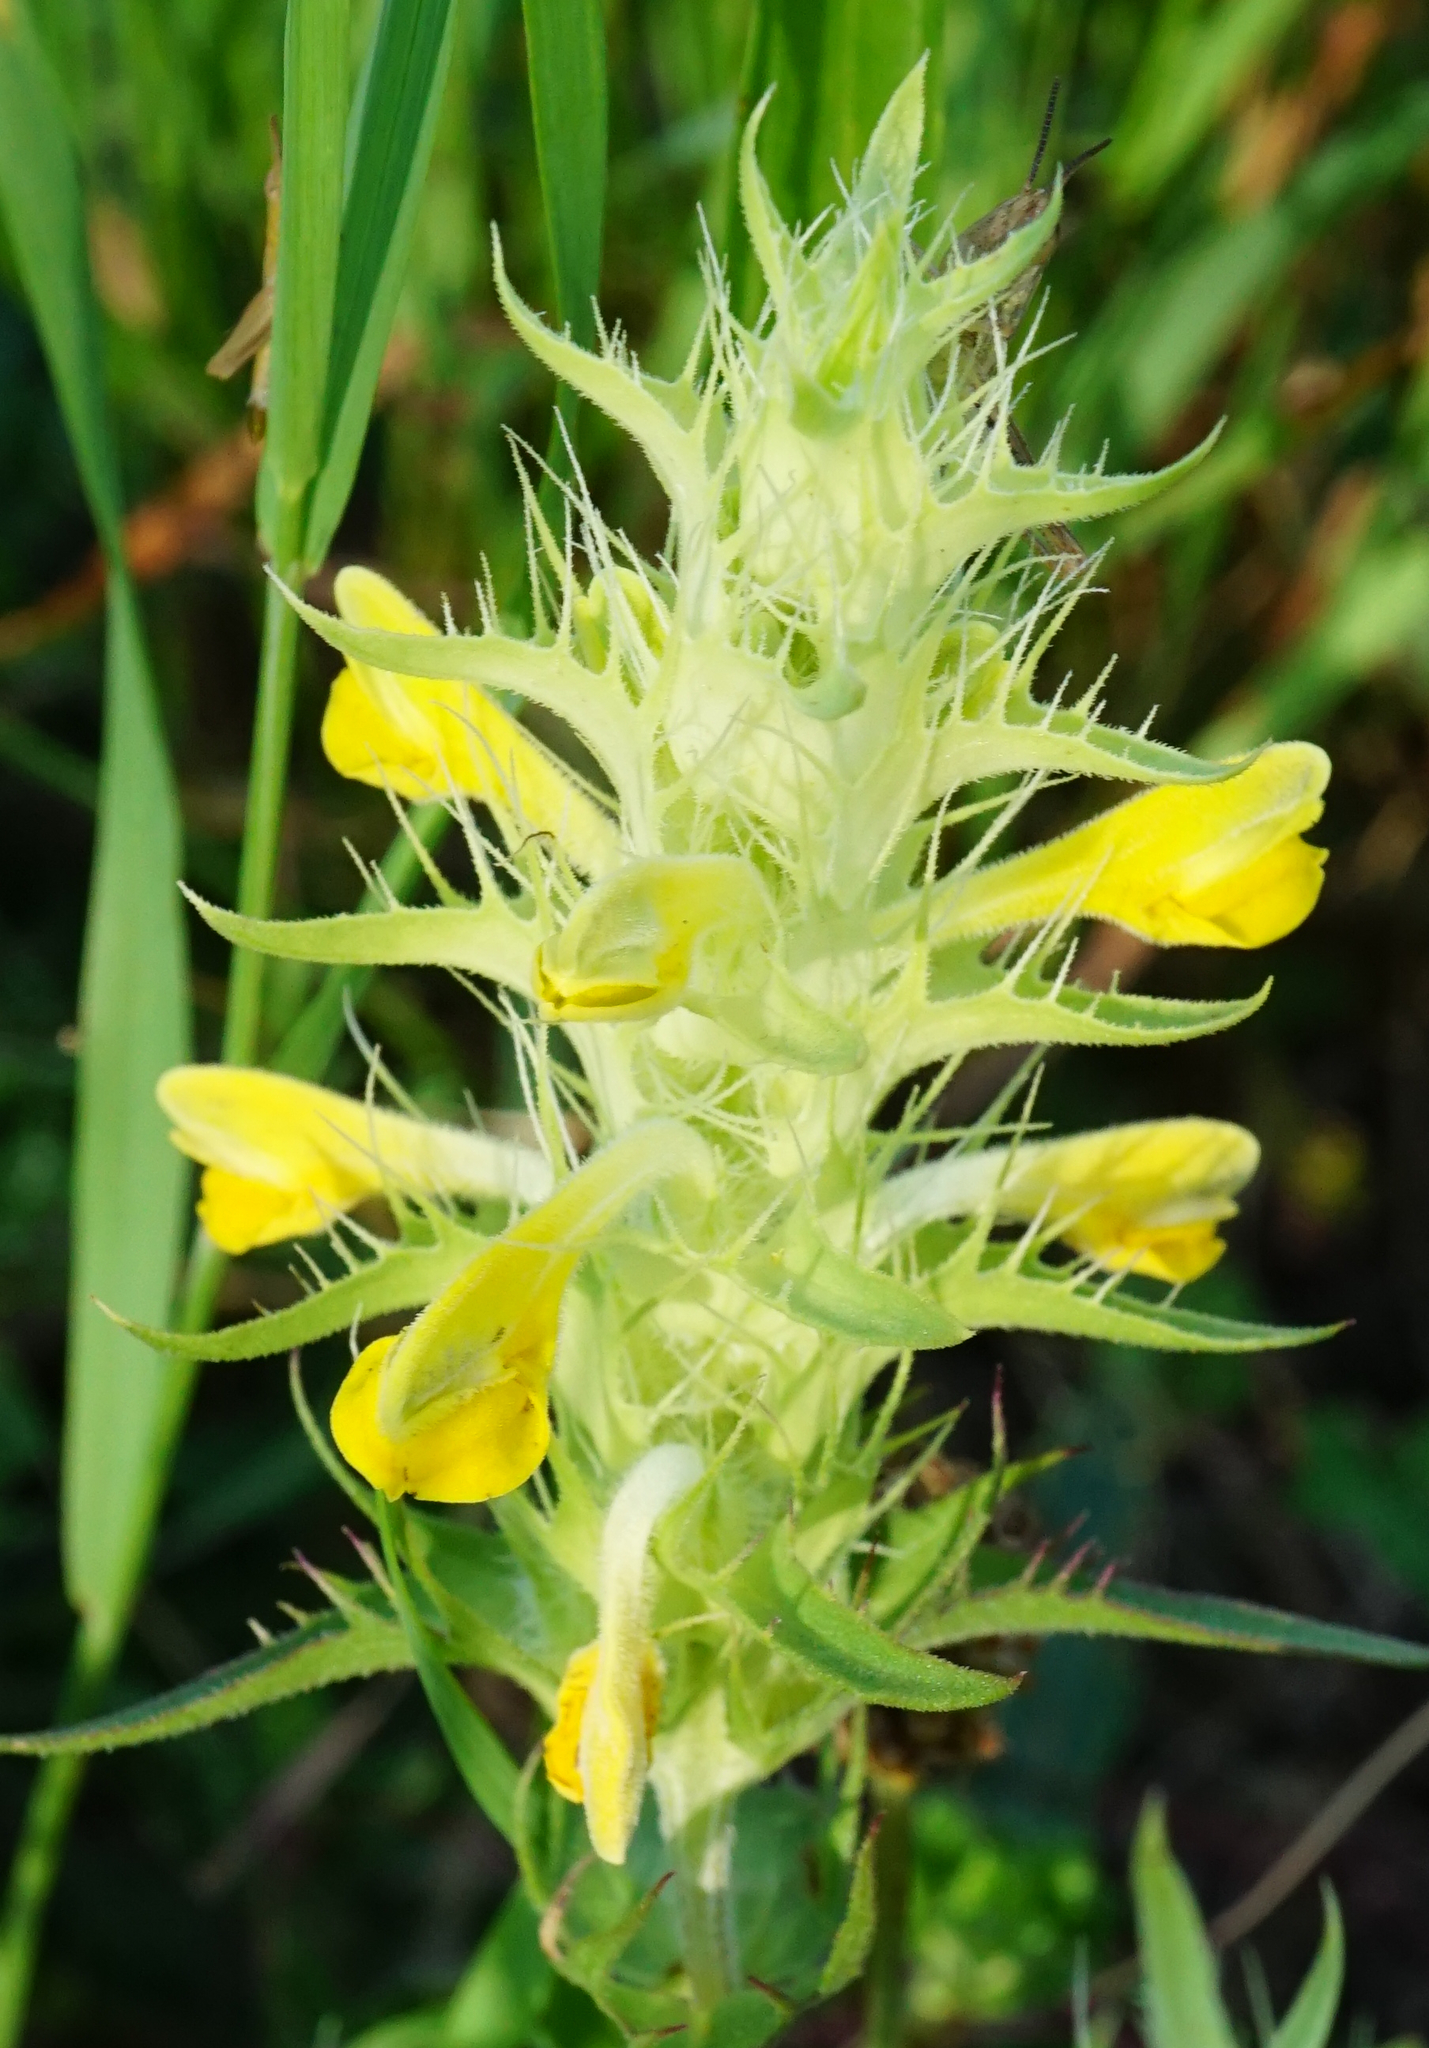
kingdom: Plantae
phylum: Tracheophyta
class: Magnoliopsida
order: Lamiales
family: Orobanchaceae
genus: Melampyrum
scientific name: Melampyrum barbatum
